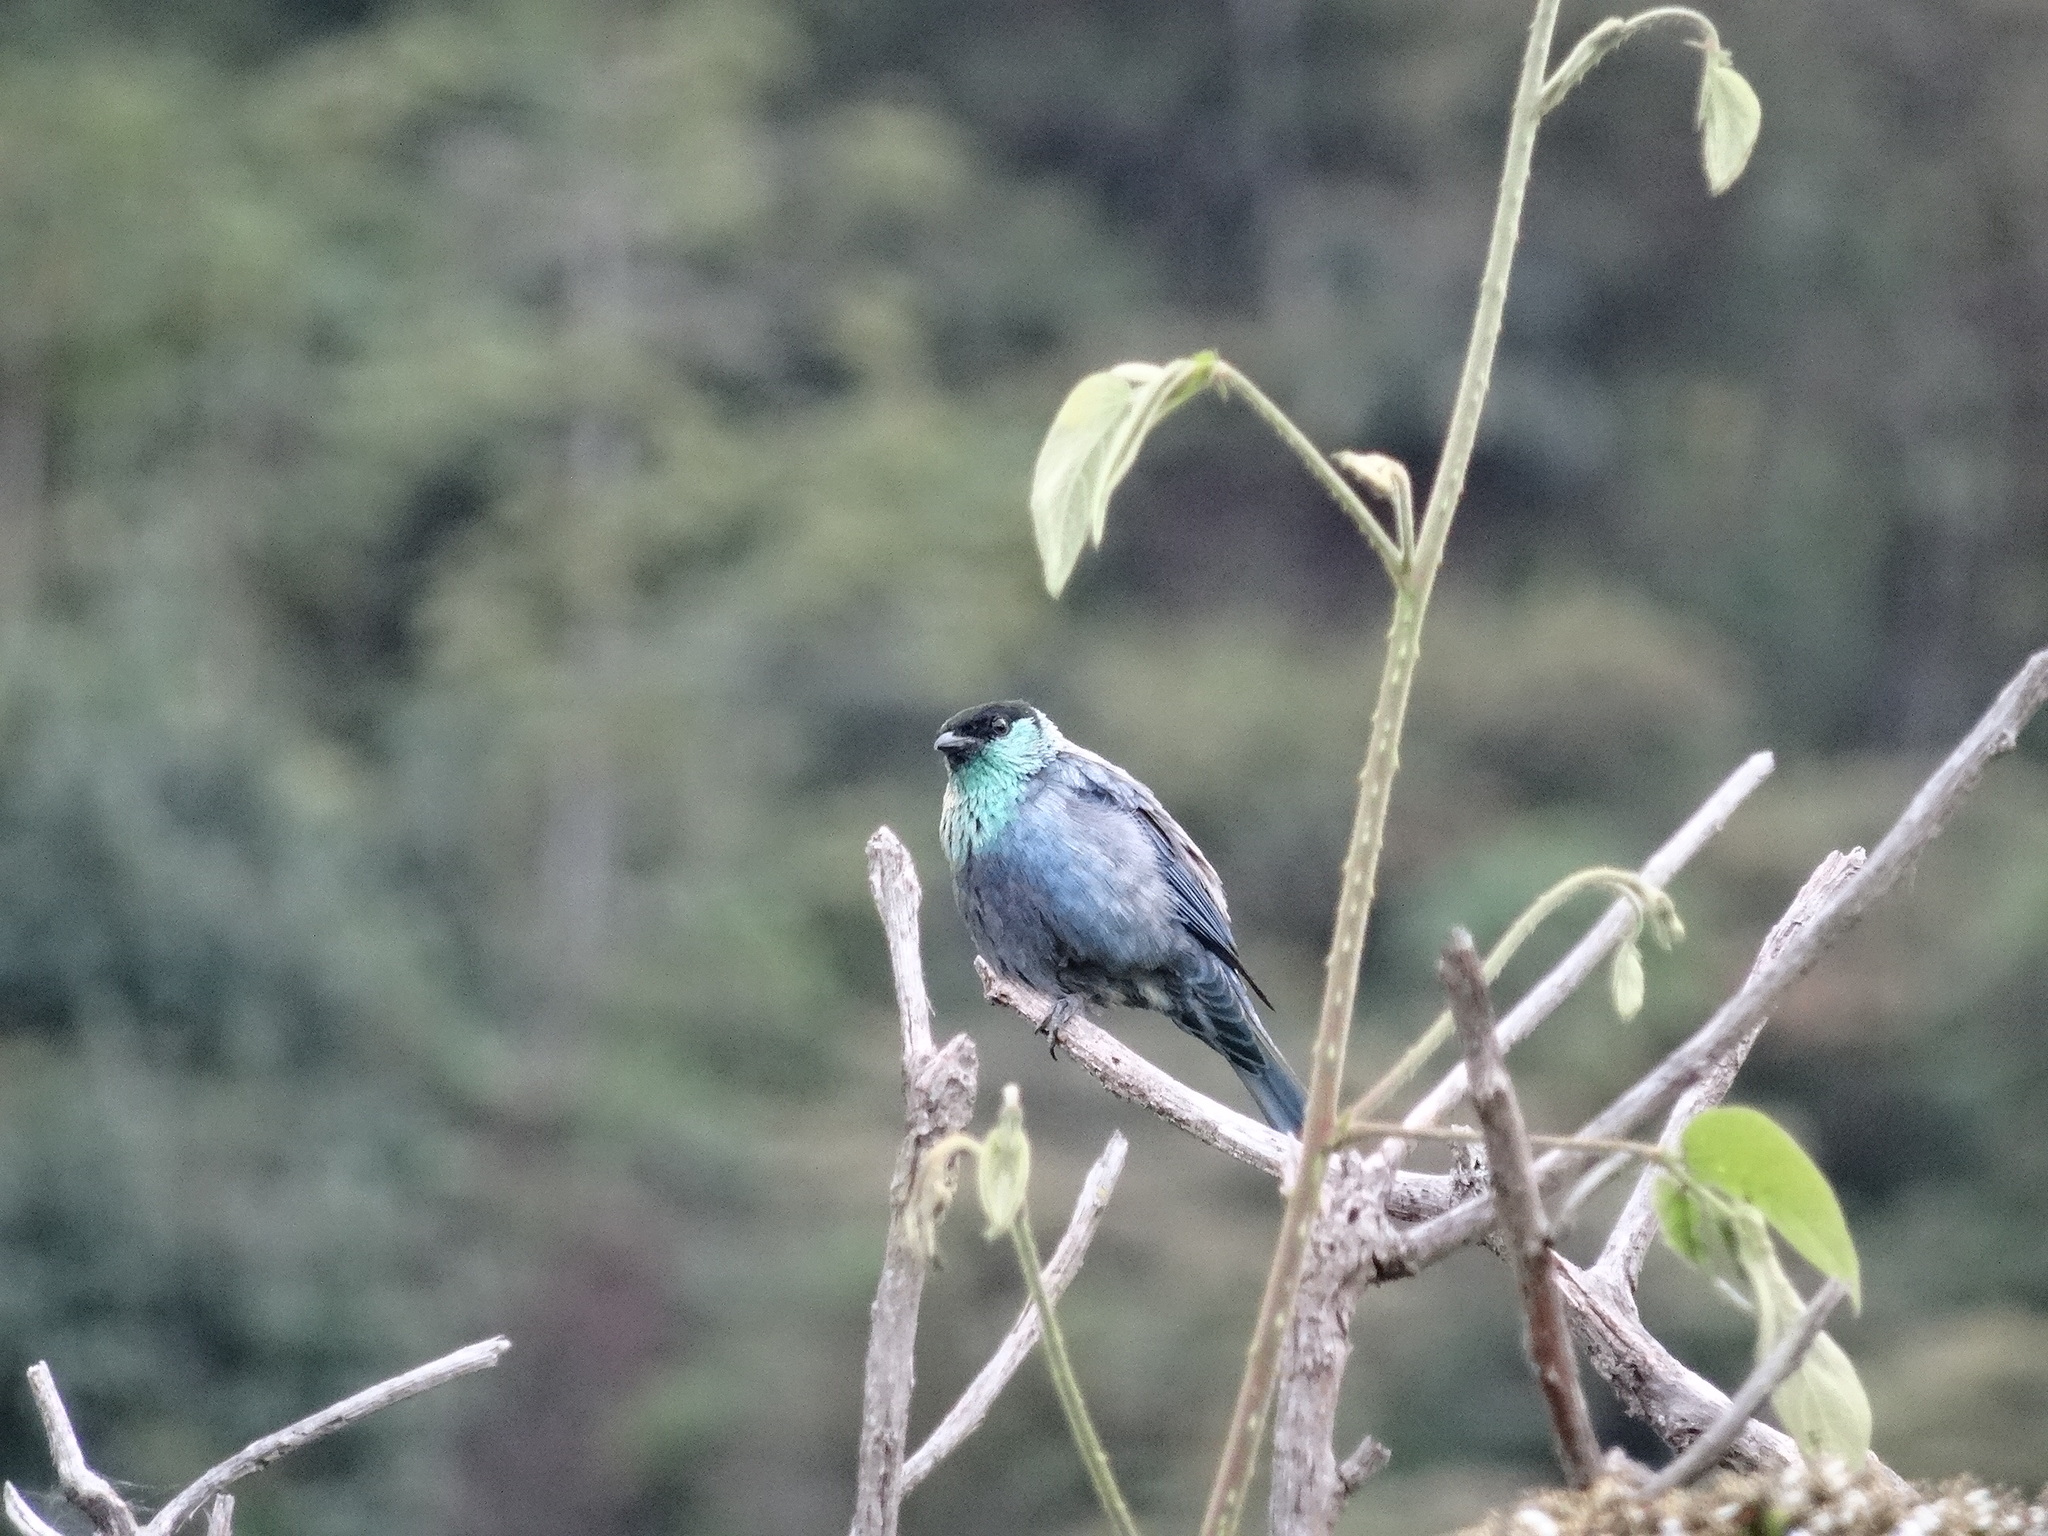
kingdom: Animalia
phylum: Chordata
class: Aves
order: Passeriformes
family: Thraupidae
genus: Stilpnia
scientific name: Stilpnia heinei
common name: Black-capped tanager
